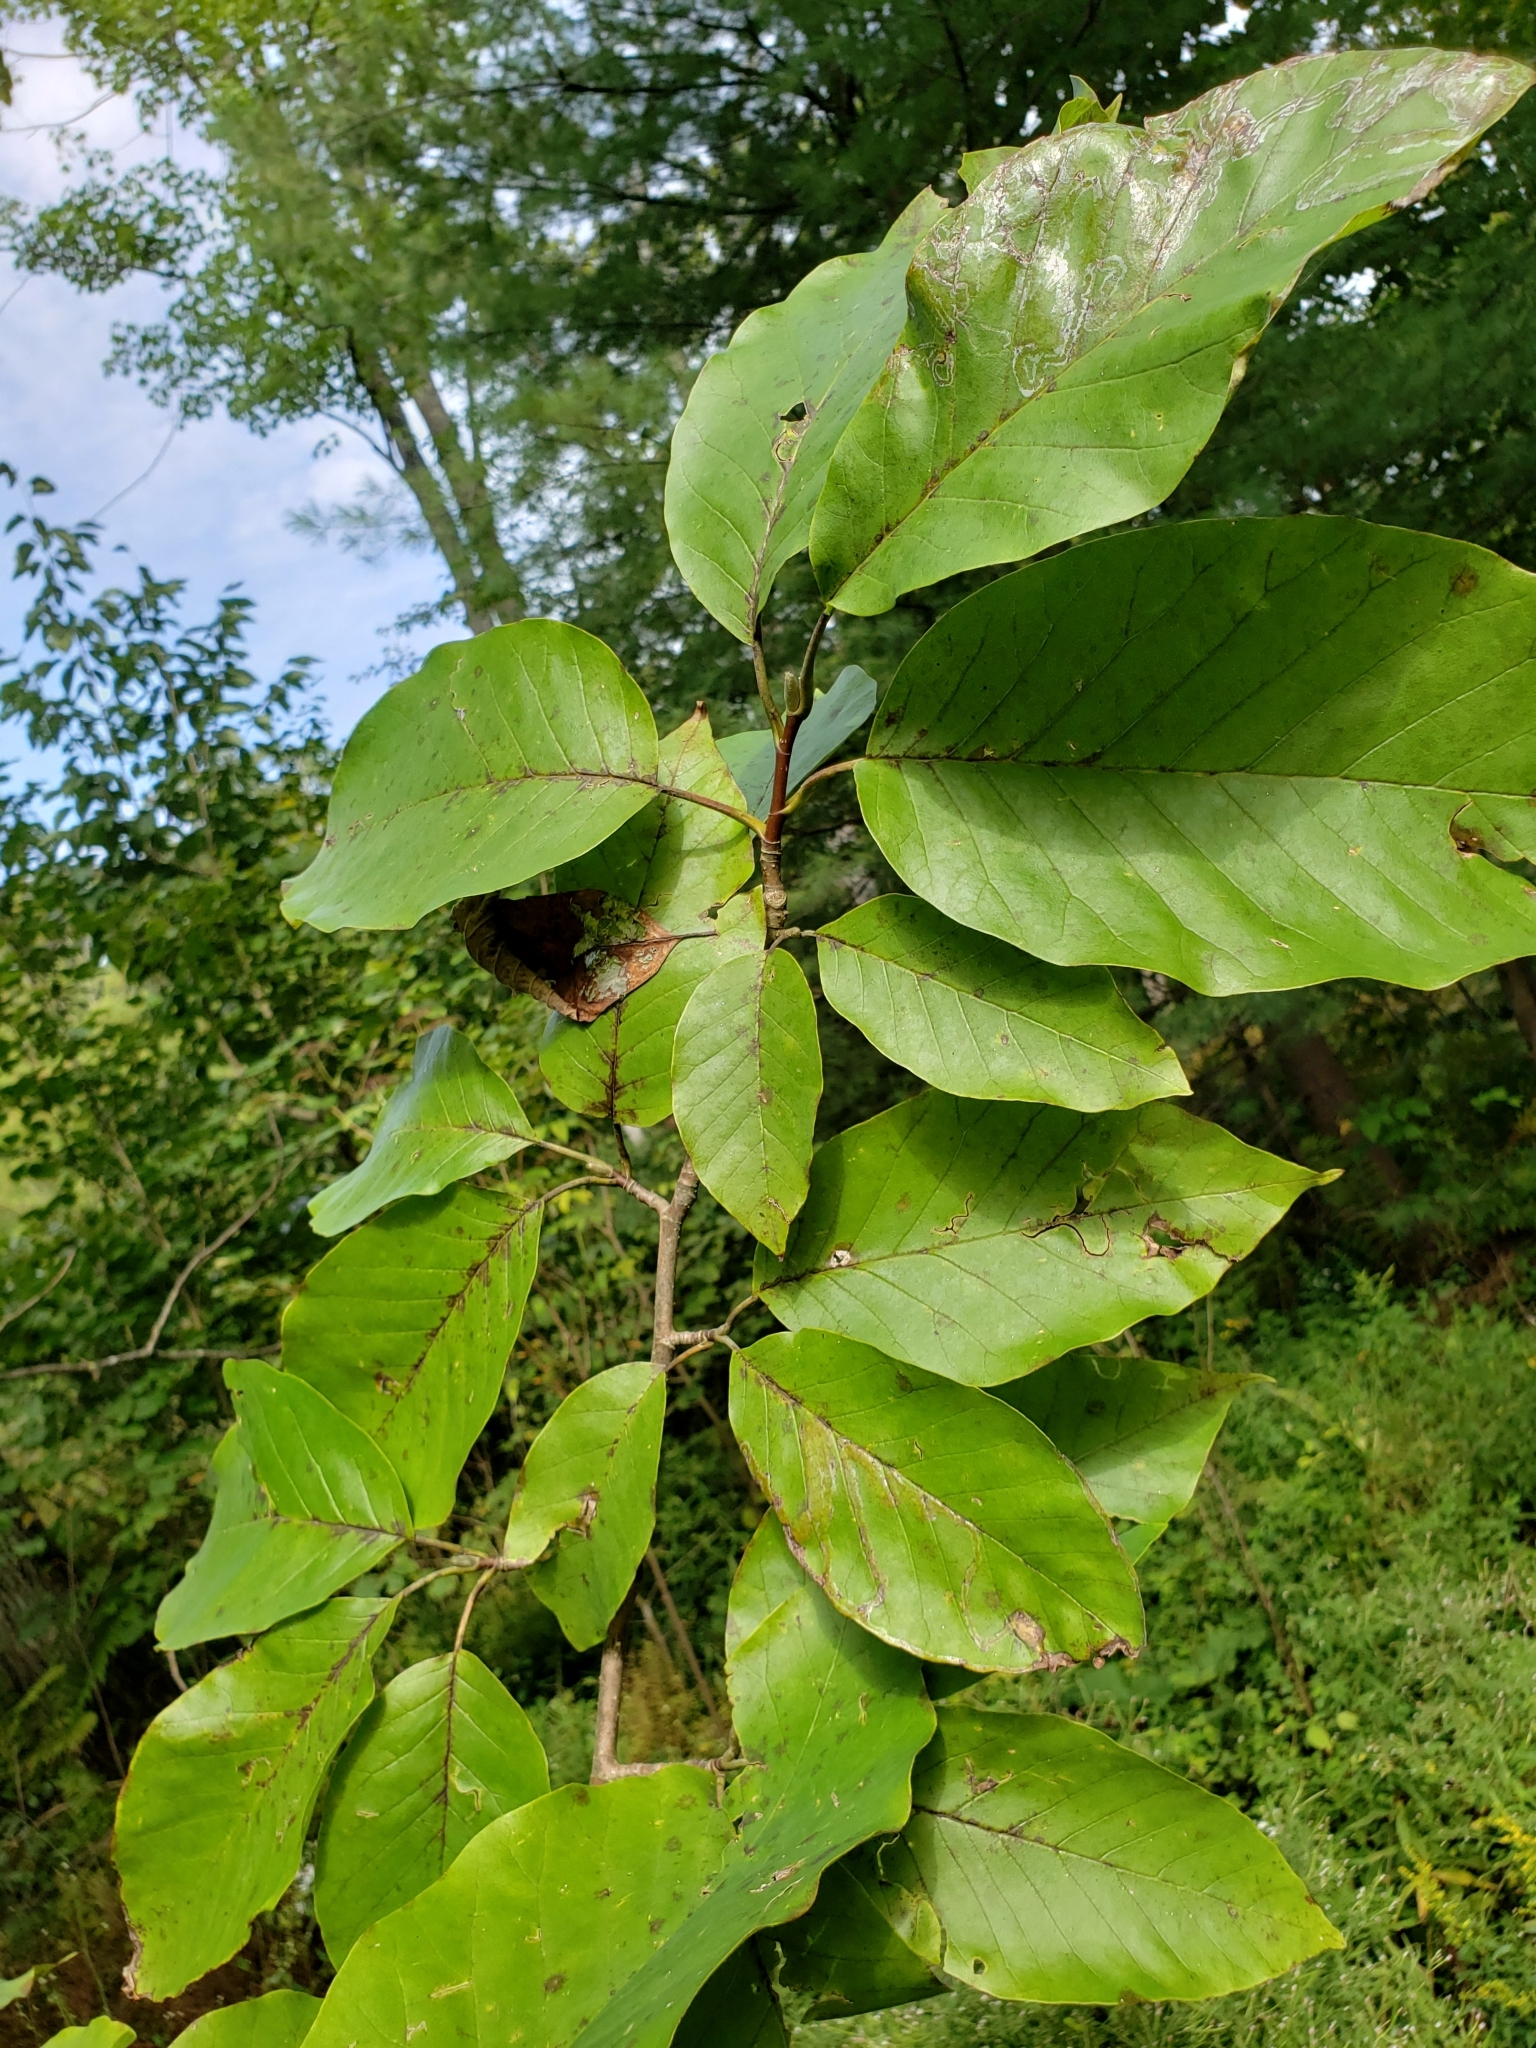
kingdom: Plantae
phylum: Tracheophyta
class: Magnoliopsida
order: Magnoliales
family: Magnoliaceae
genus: Magnolia
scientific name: Magnolia acuminata
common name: Cucumber magnolia
